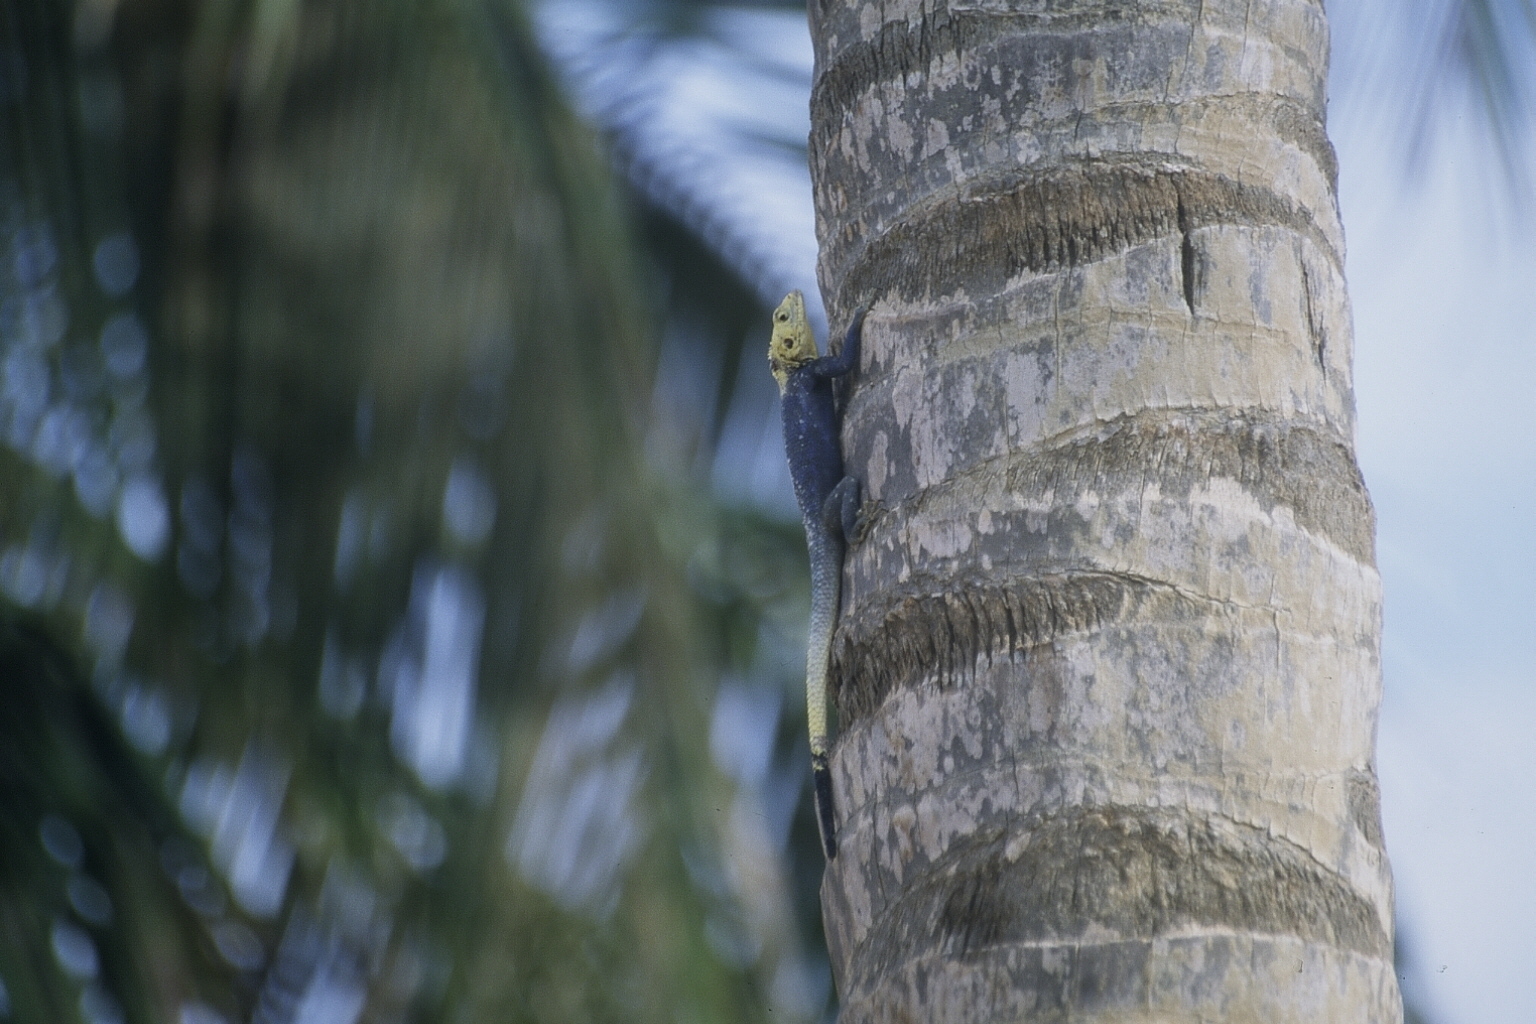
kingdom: Animalia
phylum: Chordata
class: Squamata
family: Agamidae
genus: Agama
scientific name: Agama agama
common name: Common agama
